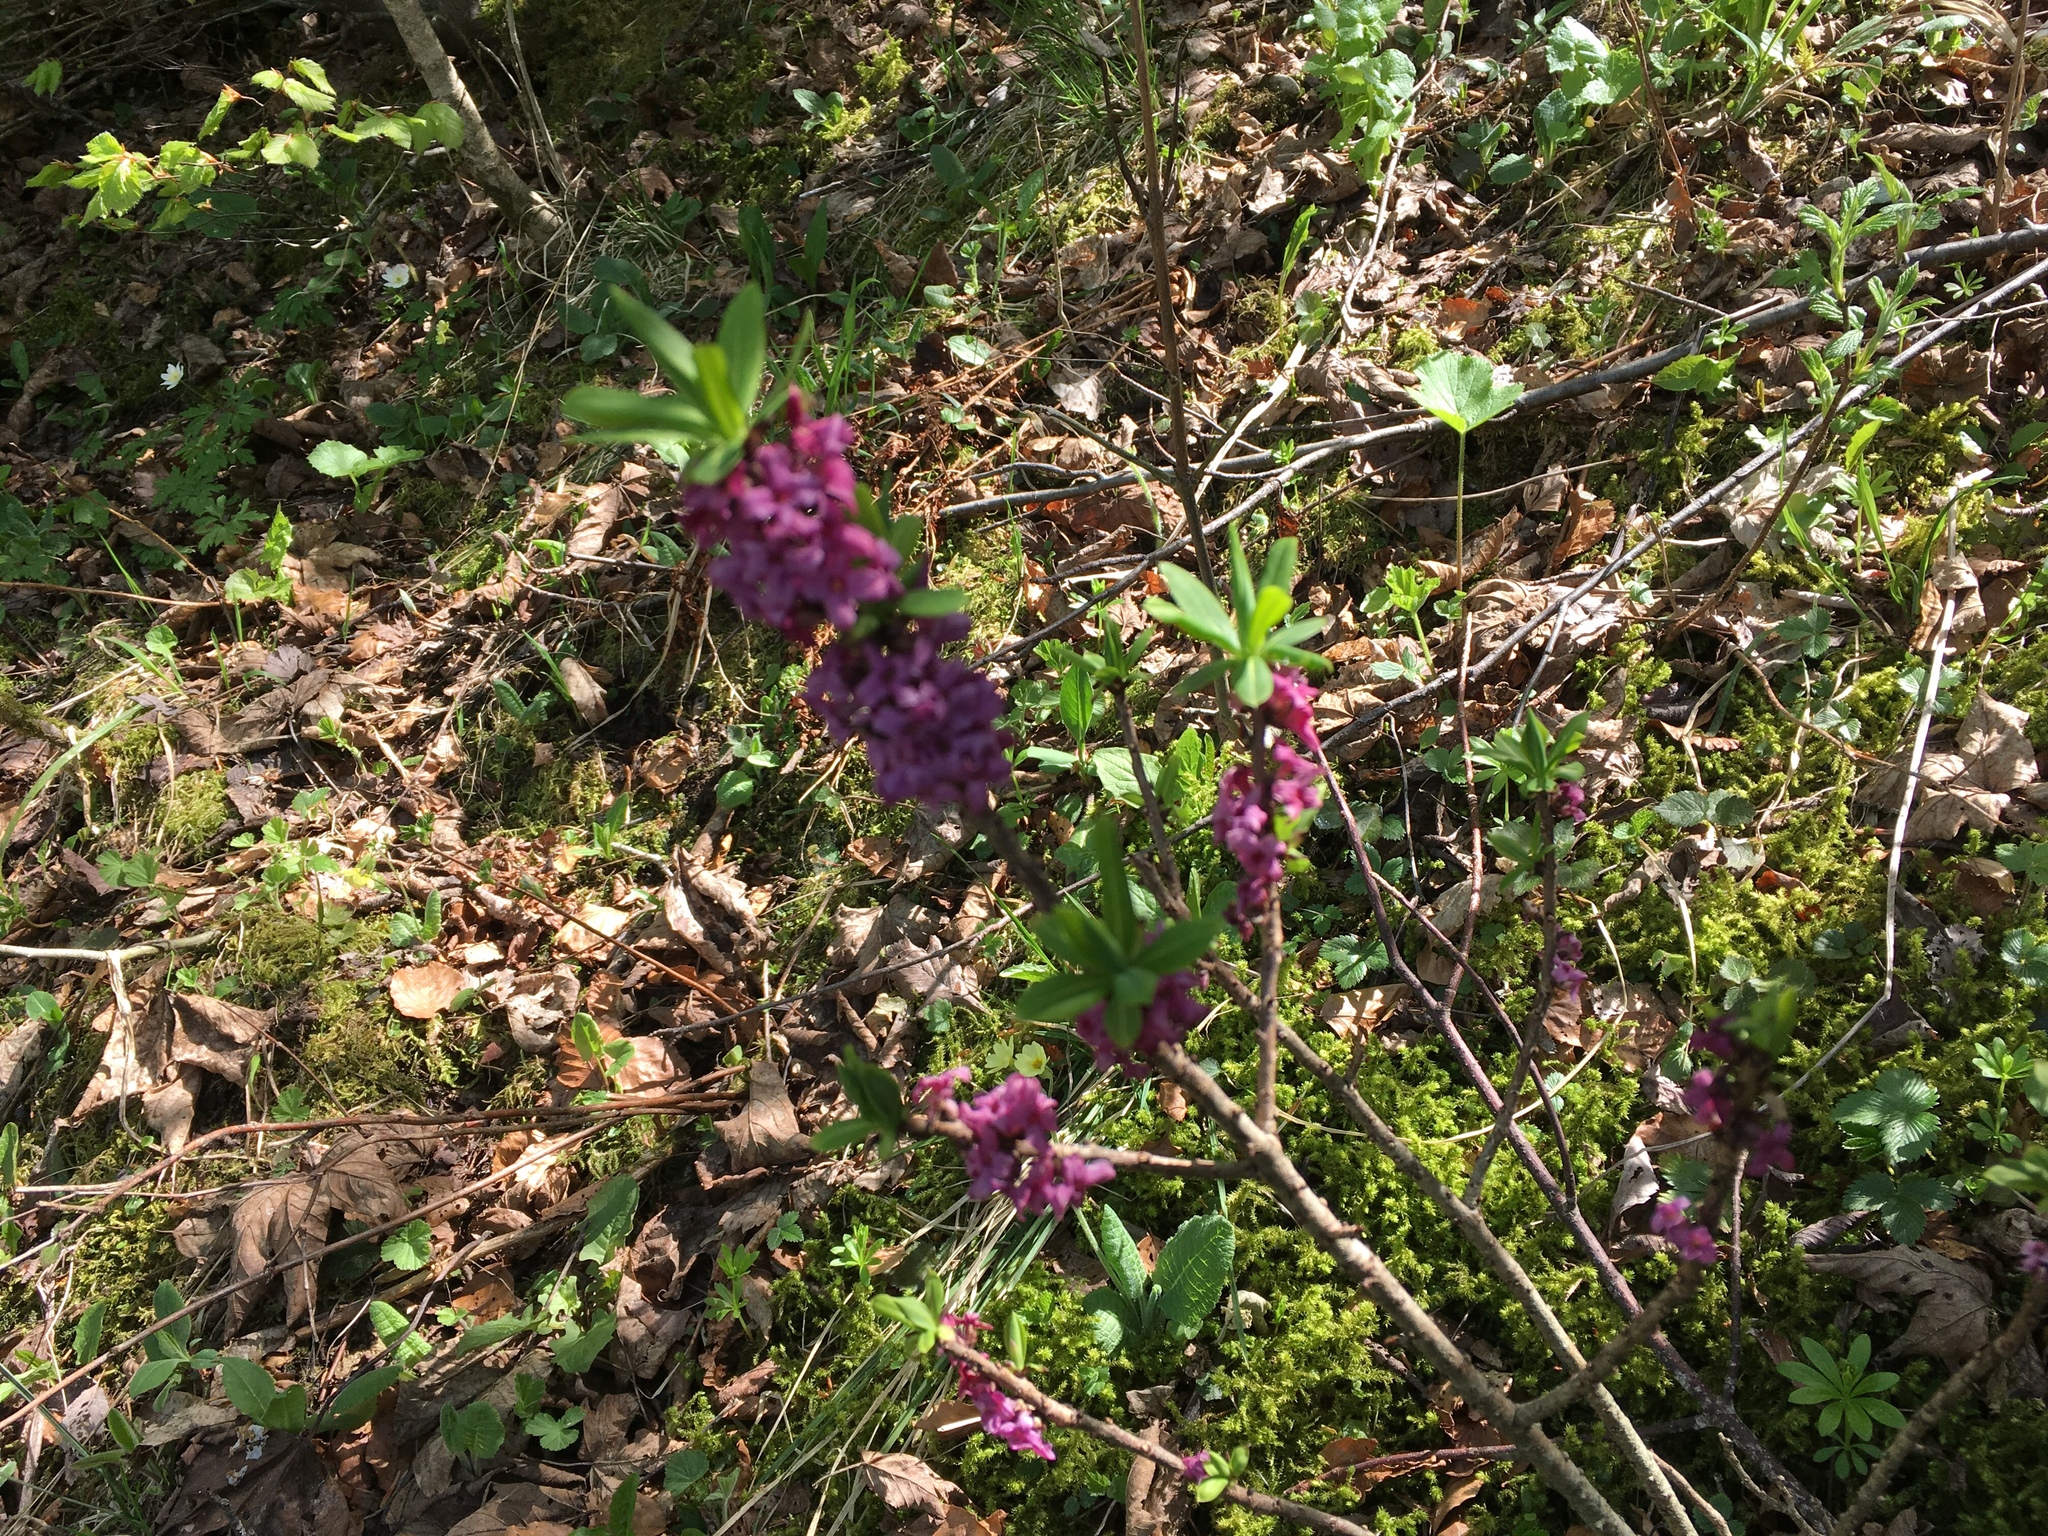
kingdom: Plantae
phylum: Tracheophyta
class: Magnoliopsida
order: Malvales
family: Thymelaeaceae
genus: Daphne
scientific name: Daphne mezereum
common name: Mezereon
